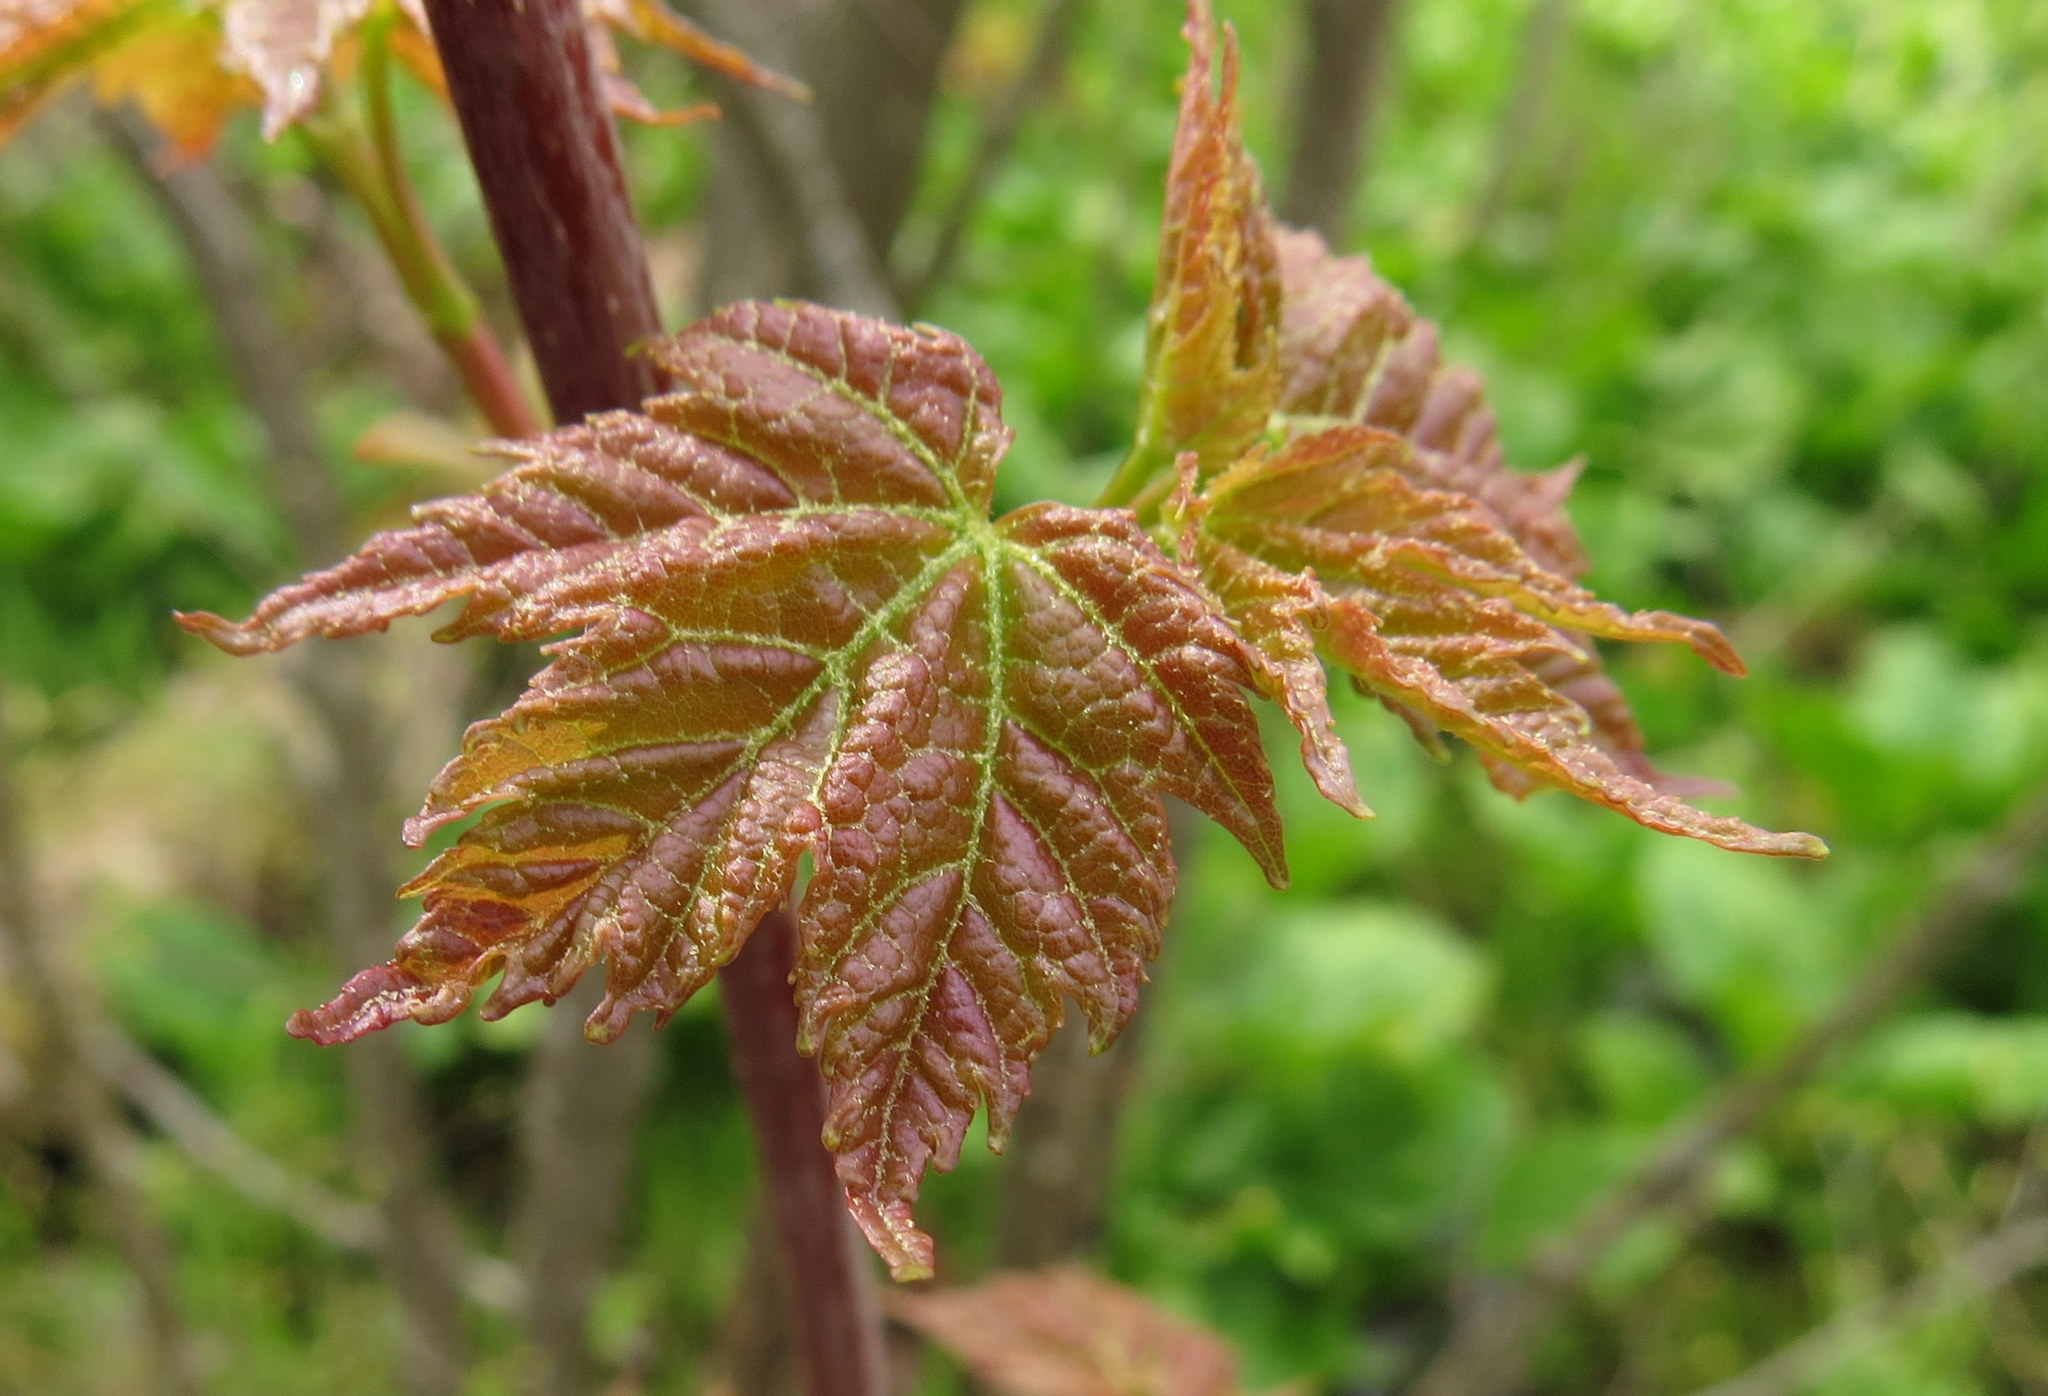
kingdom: Plantae
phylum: Tracheophyta
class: Magnoliopsida
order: Sapindales
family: Sapindaceae
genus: Acer
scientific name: Acer rubrum
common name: Red maple
